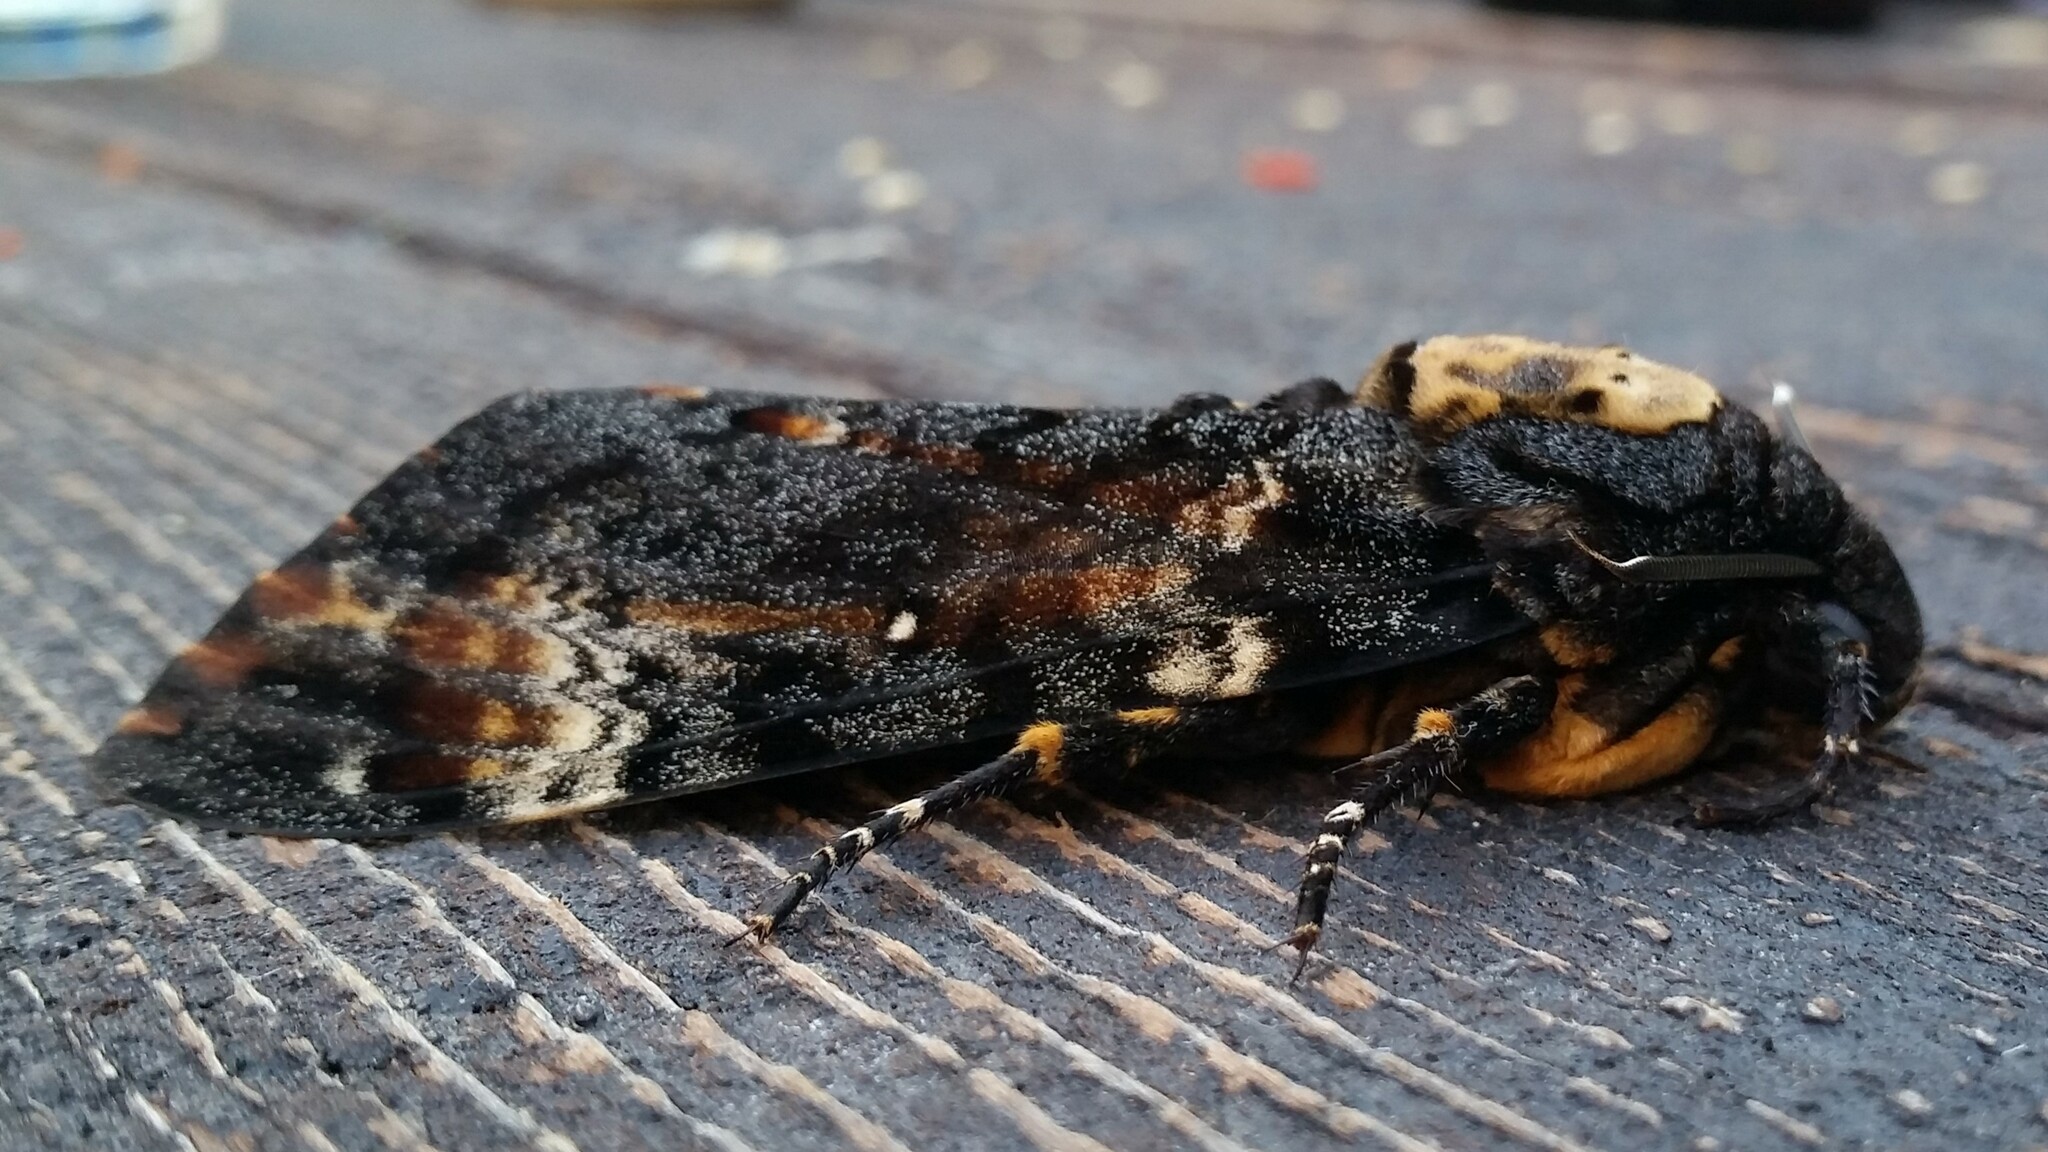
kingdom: Animalia
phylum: Arthropoda
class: Insecta
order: Lepidoptera
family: Sphingidae
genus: Acherontia
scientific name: Acherontia atropos
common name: Death's-head hawk moth
